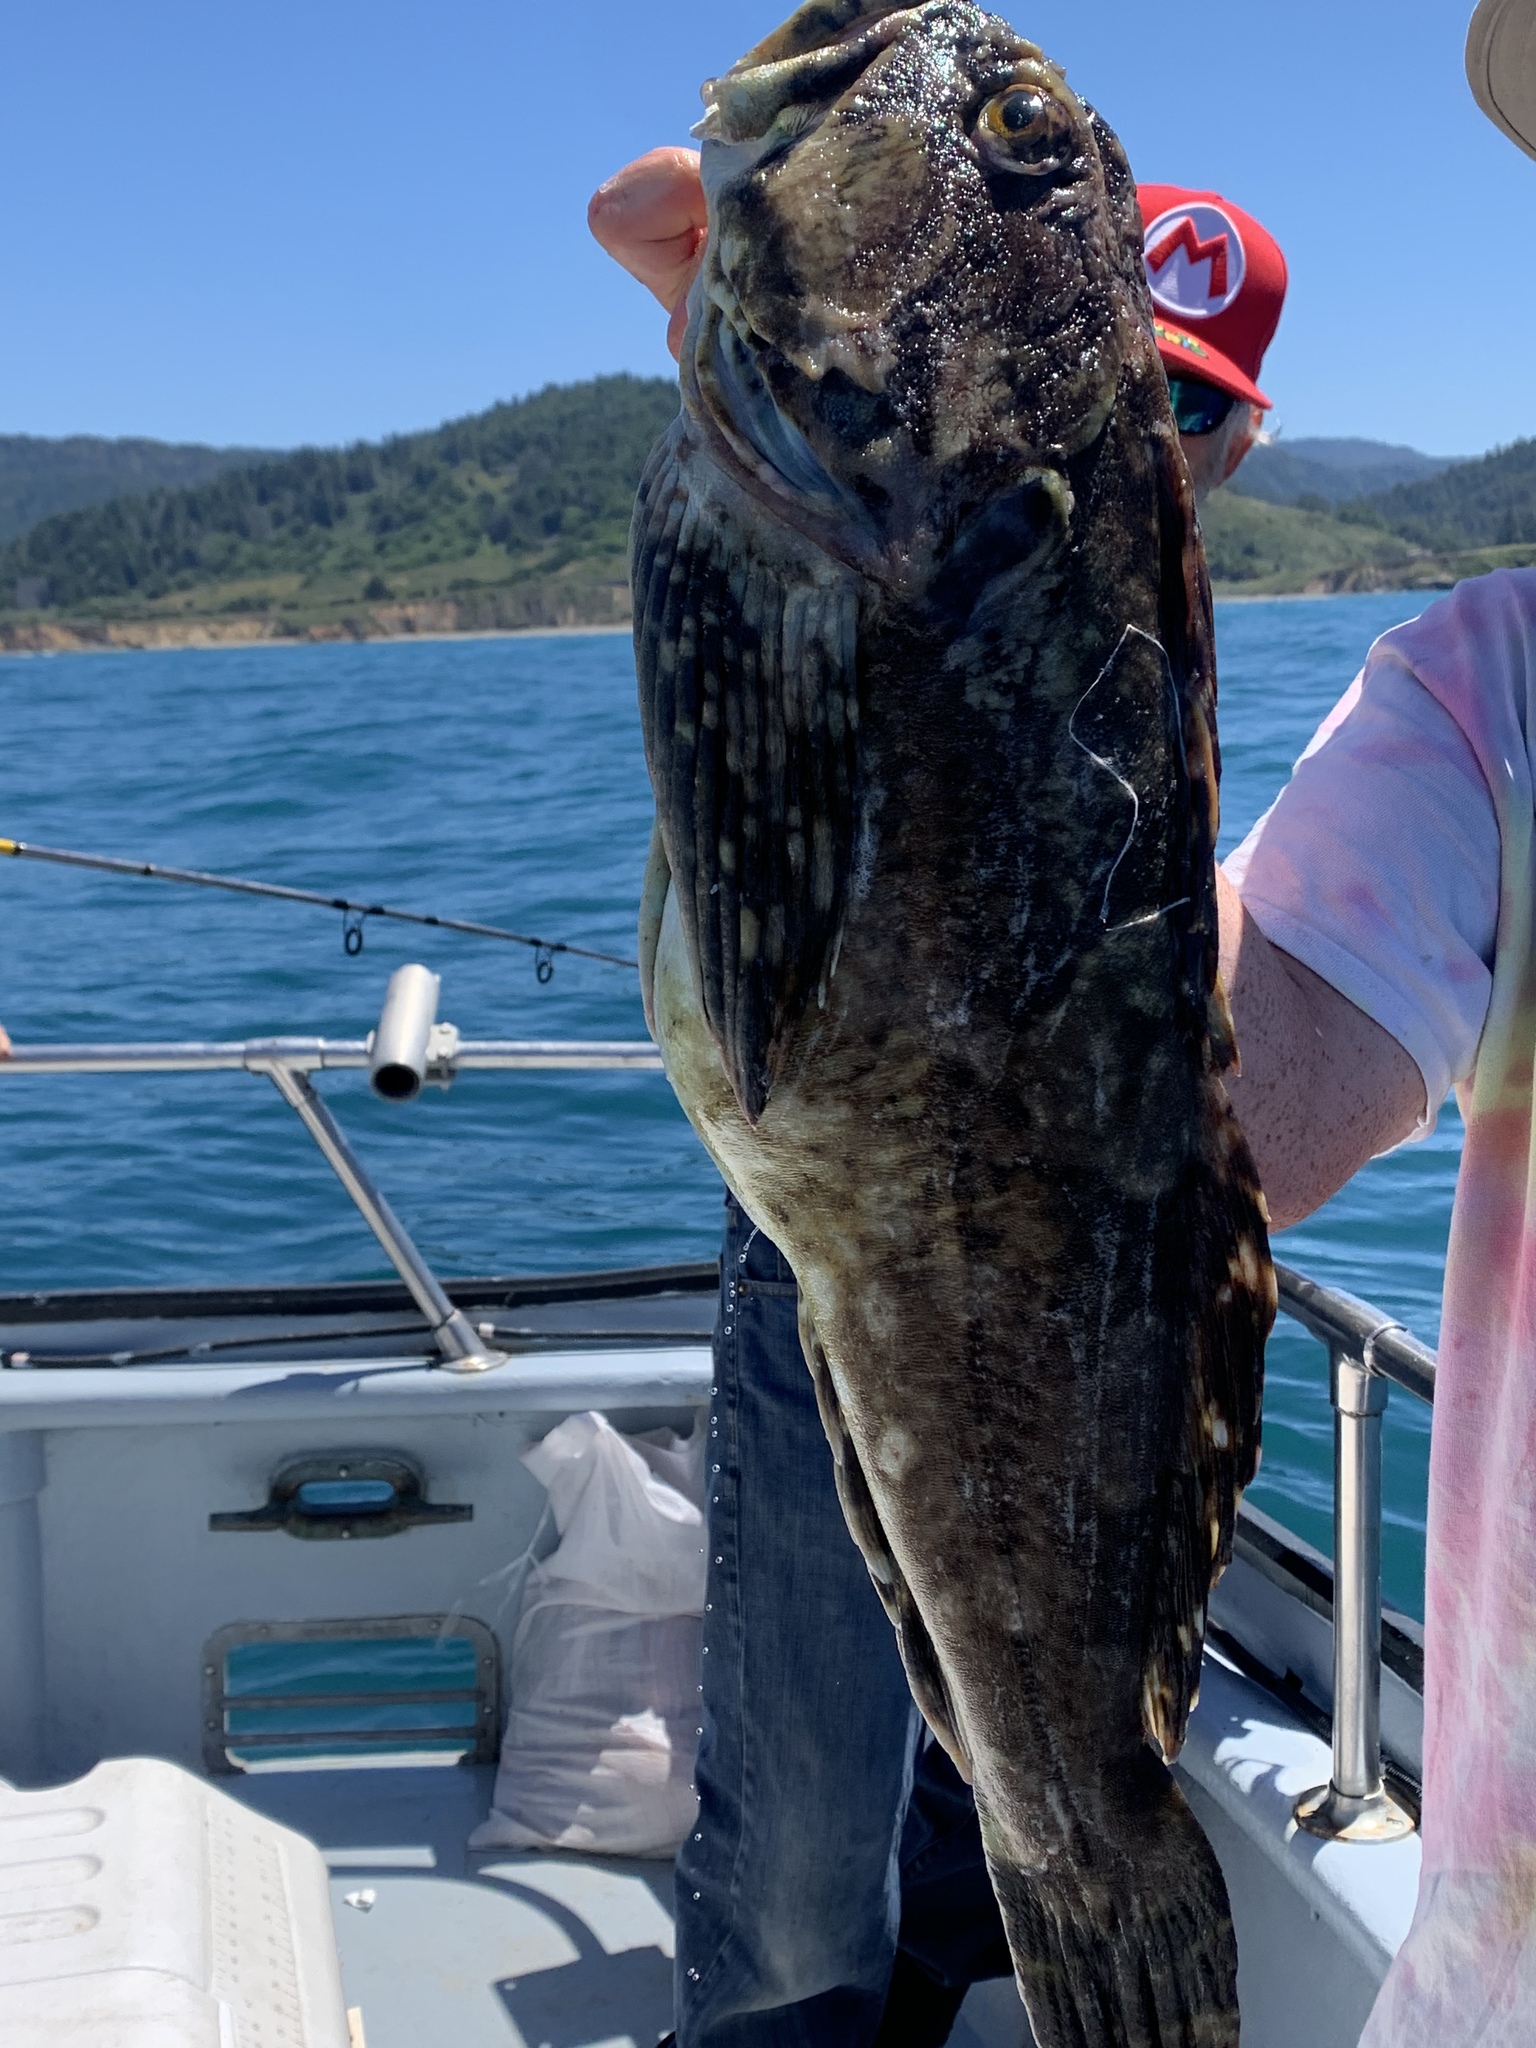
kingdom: Animalia
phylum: Chordata
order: Scorpaeniformes
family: Cottidae
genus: Scorpaenichthys
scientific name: Scorpaenichthys marmoratus
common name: Cabezon
